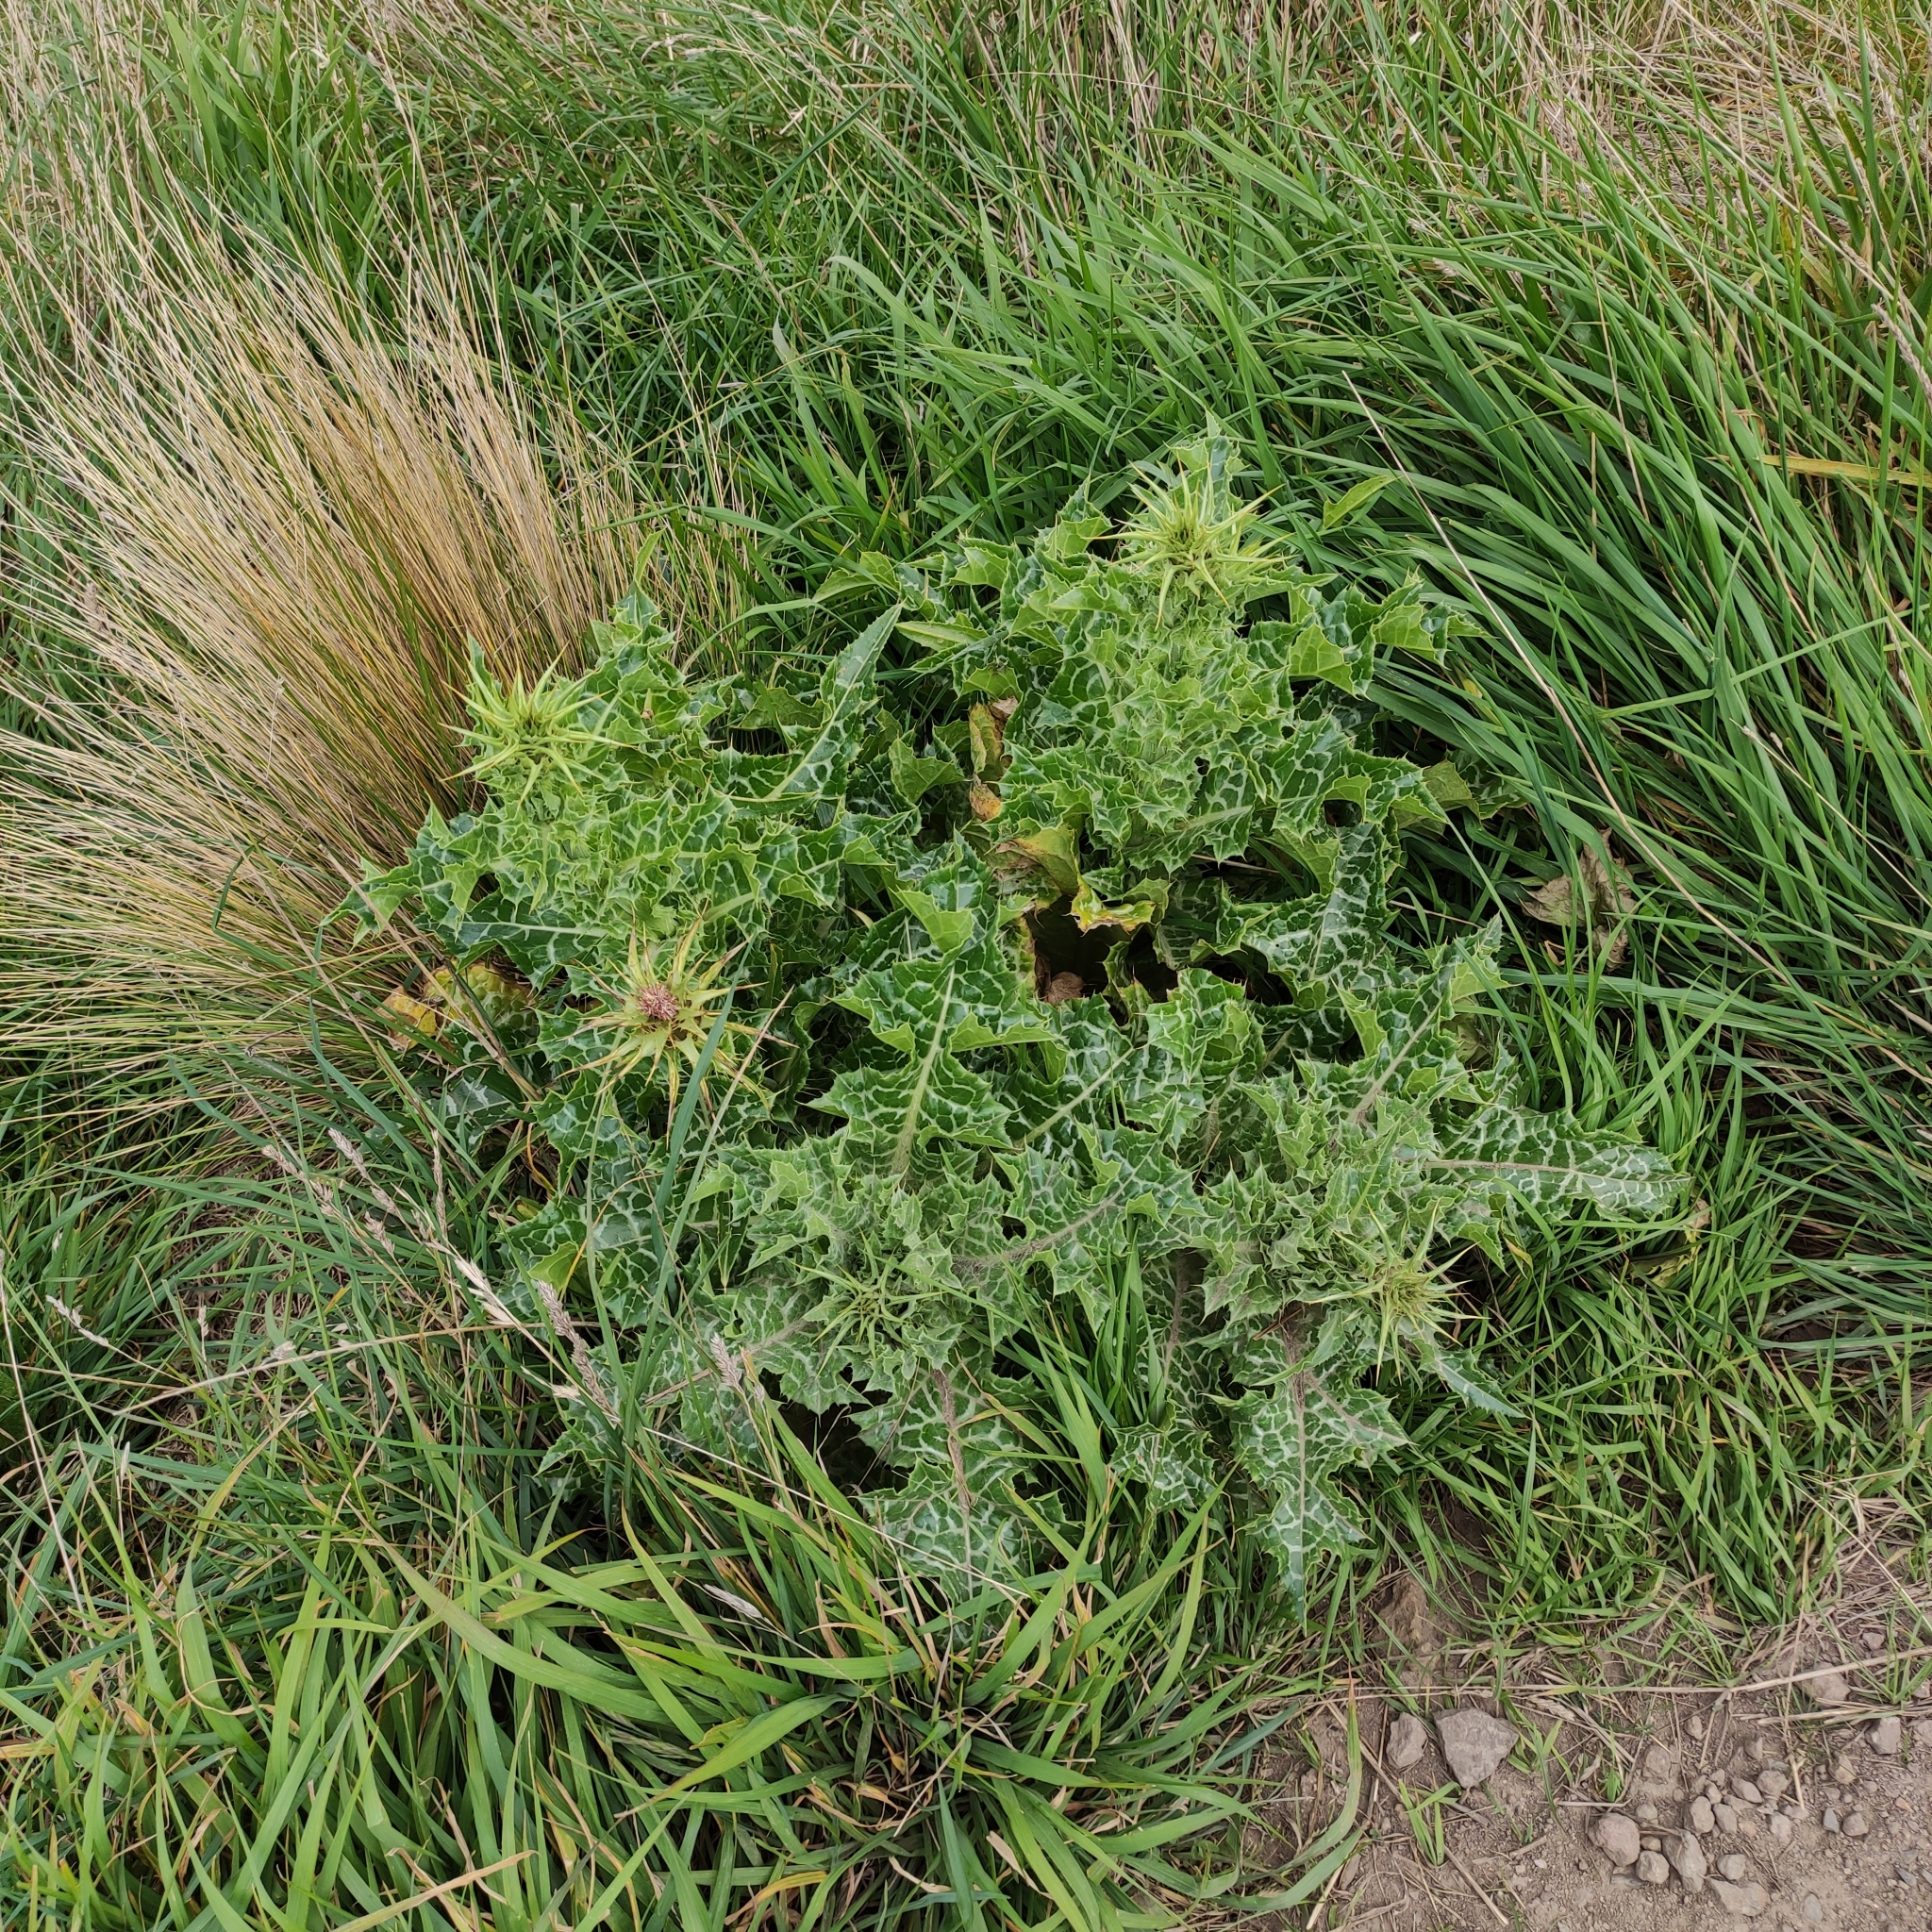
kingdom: Plantae
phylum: Tracheophyta
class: Magnoliopsida
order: Asterales
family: Asteraceae
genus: Silybum
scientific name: Silybum marianum
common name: Milk thistle
